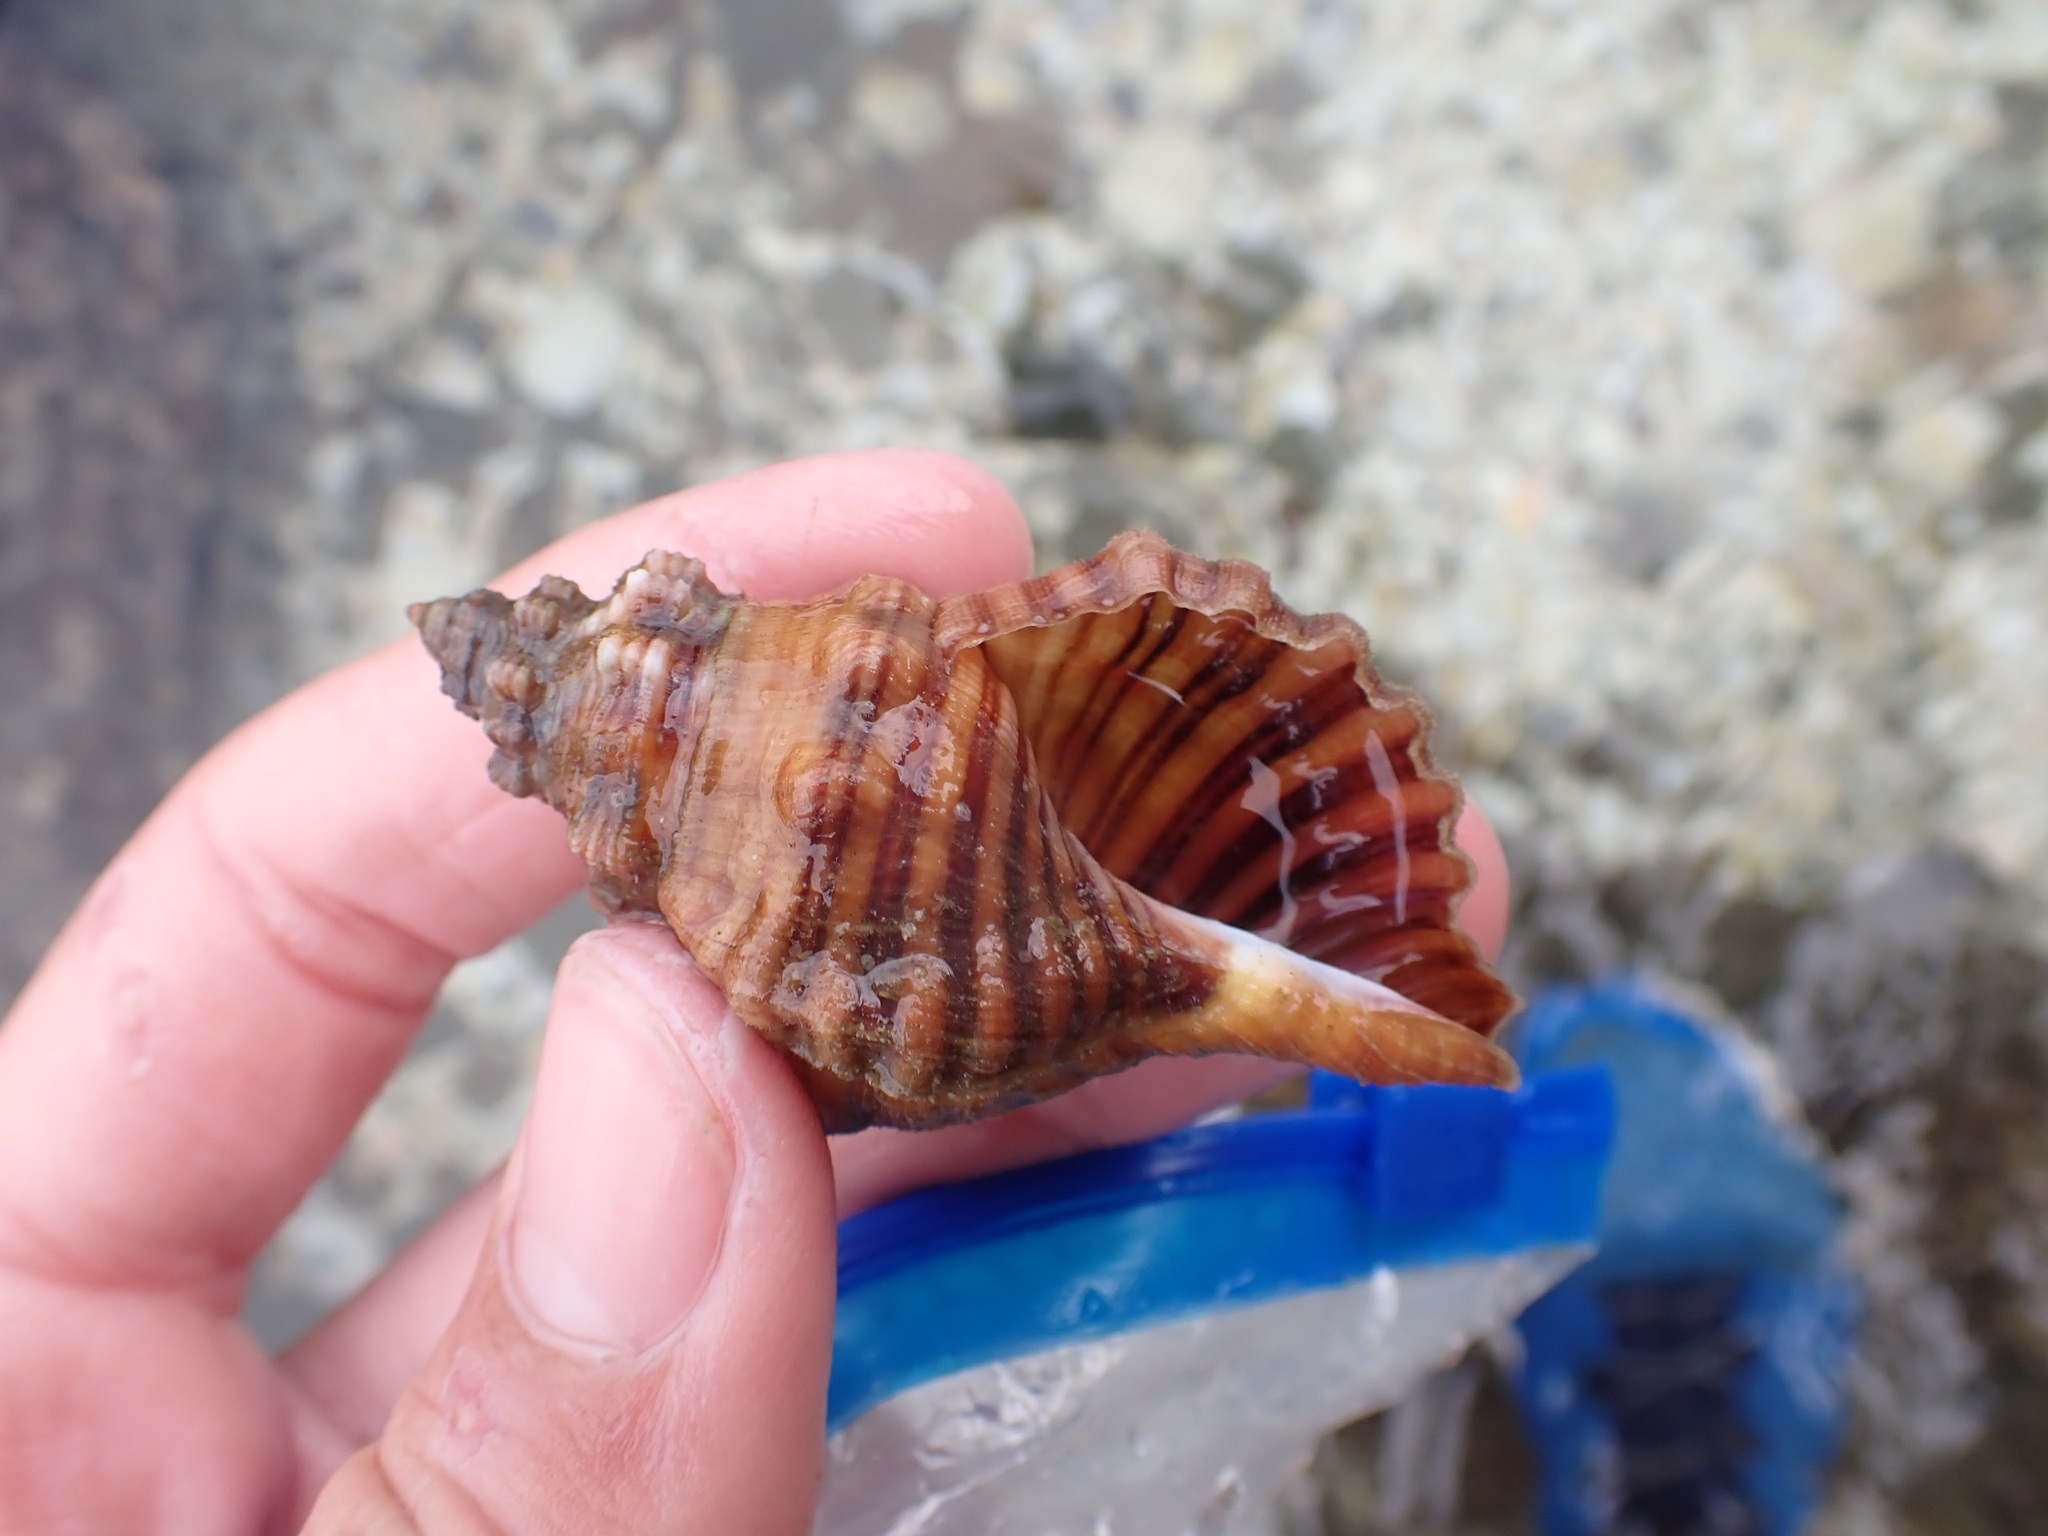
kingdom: Animalia
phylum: Mollusca
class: Gastropoda
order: Littorinimorpha
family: Cymatiidae
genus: Cabestana
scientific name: Cabestana spengleri
